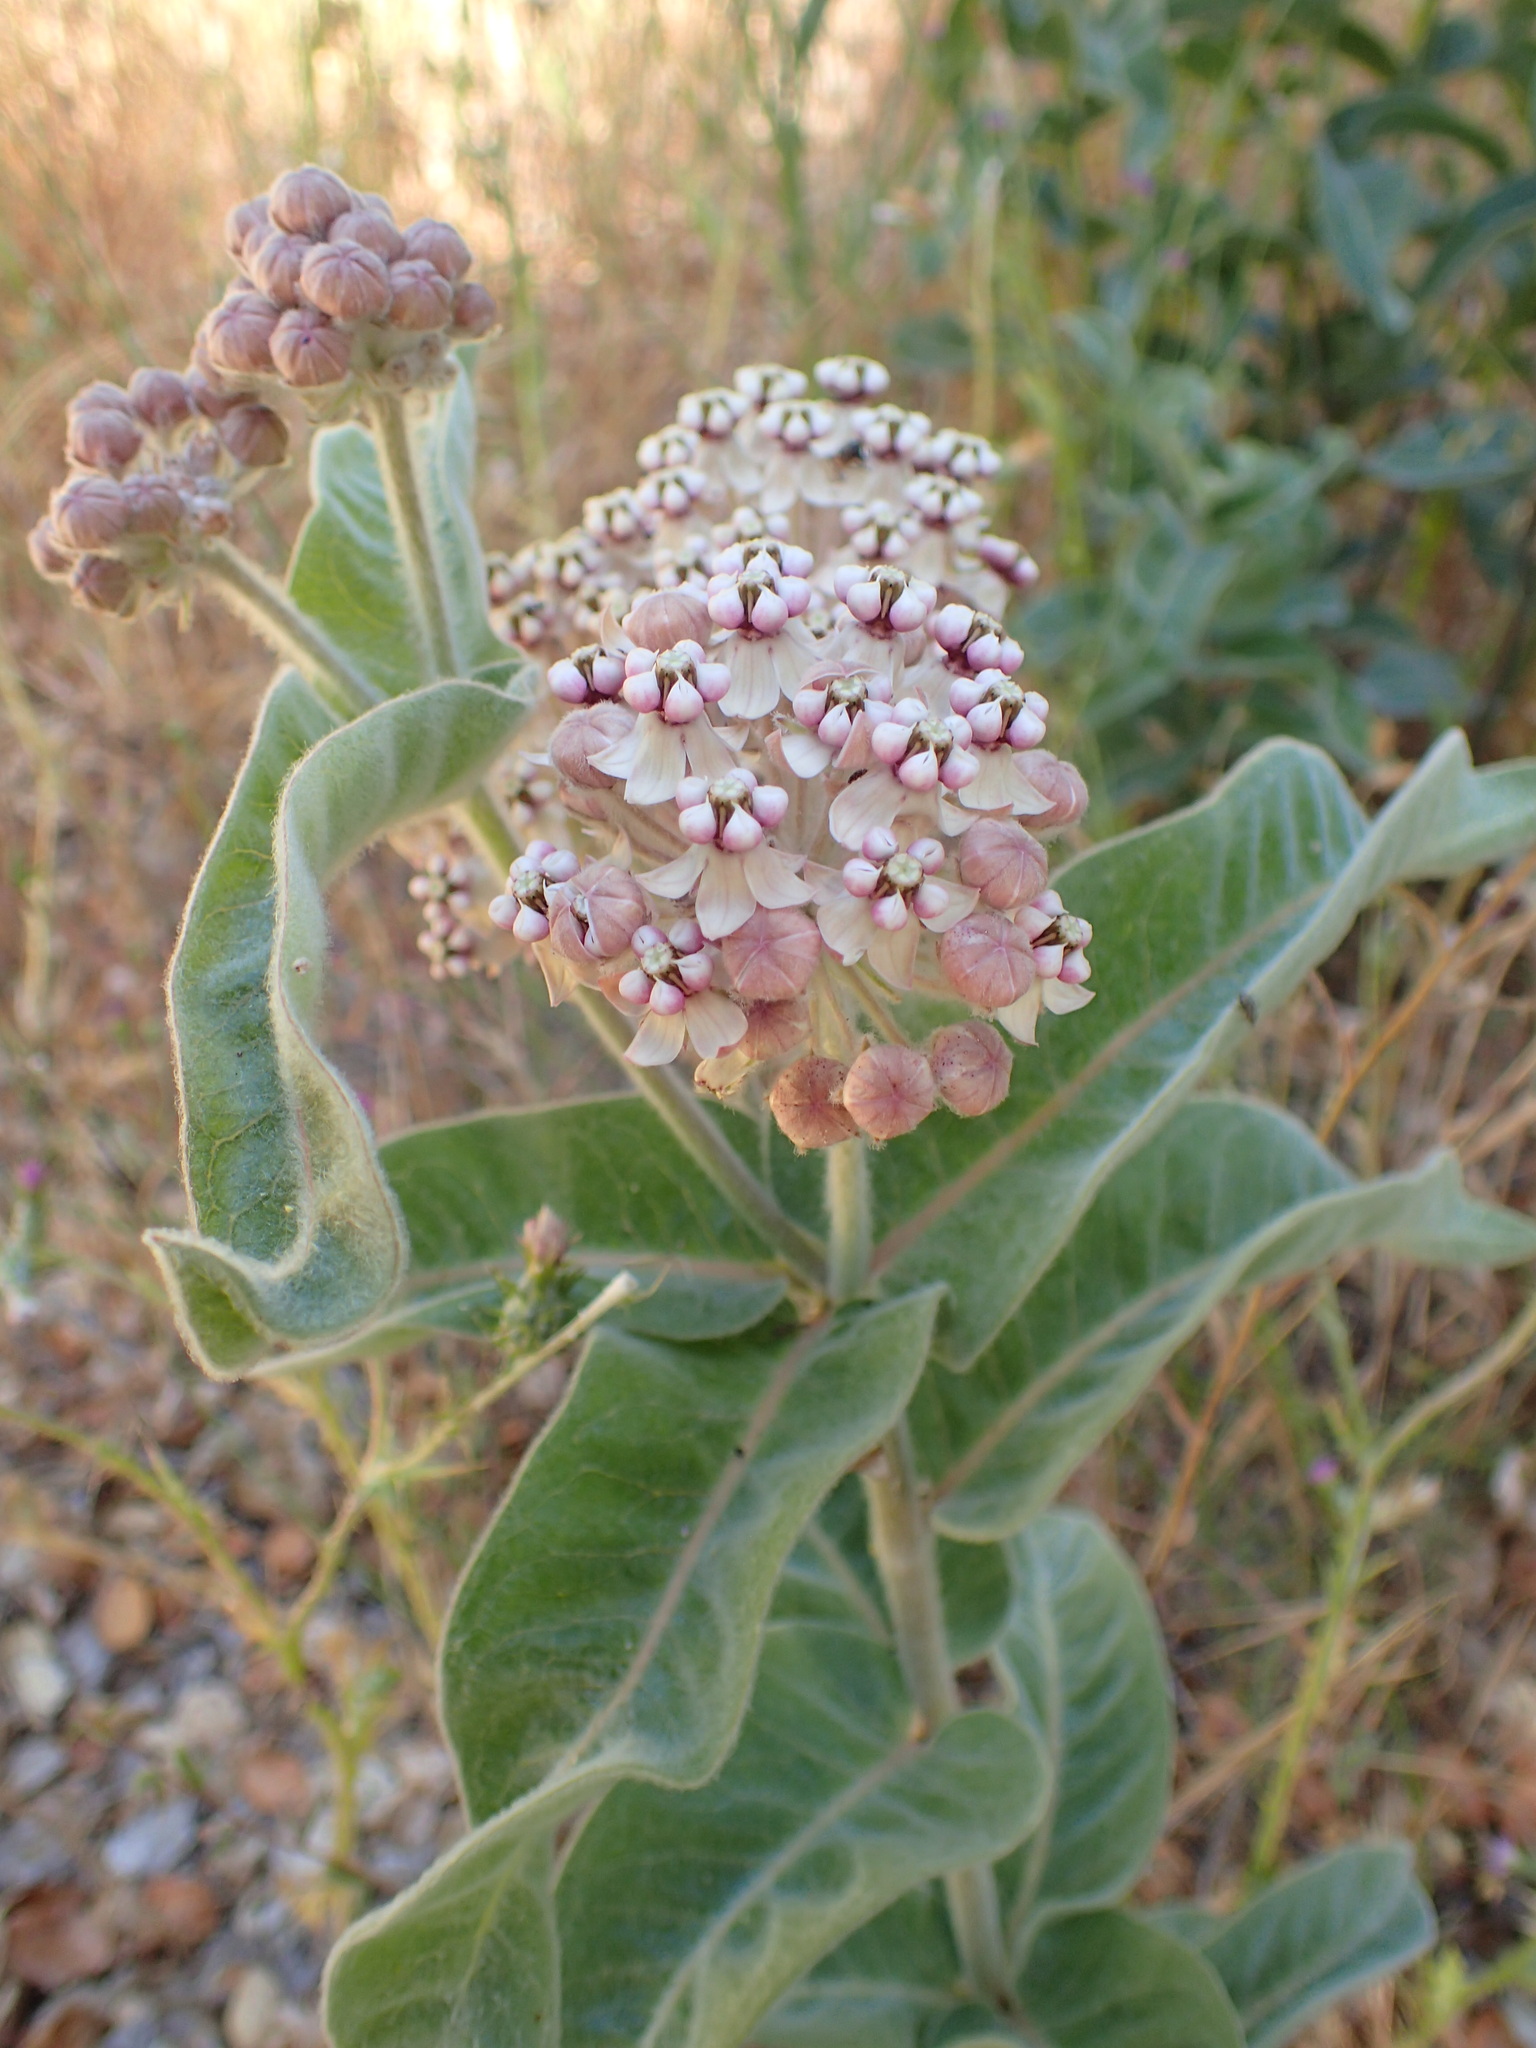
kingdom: Plantae
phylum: Tracheophyta
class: Magnoliopsida
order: Gentianales
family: Apocynaceae
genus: Asclepias
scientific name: Asclepias eriocarpa
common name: Indian milkweed
